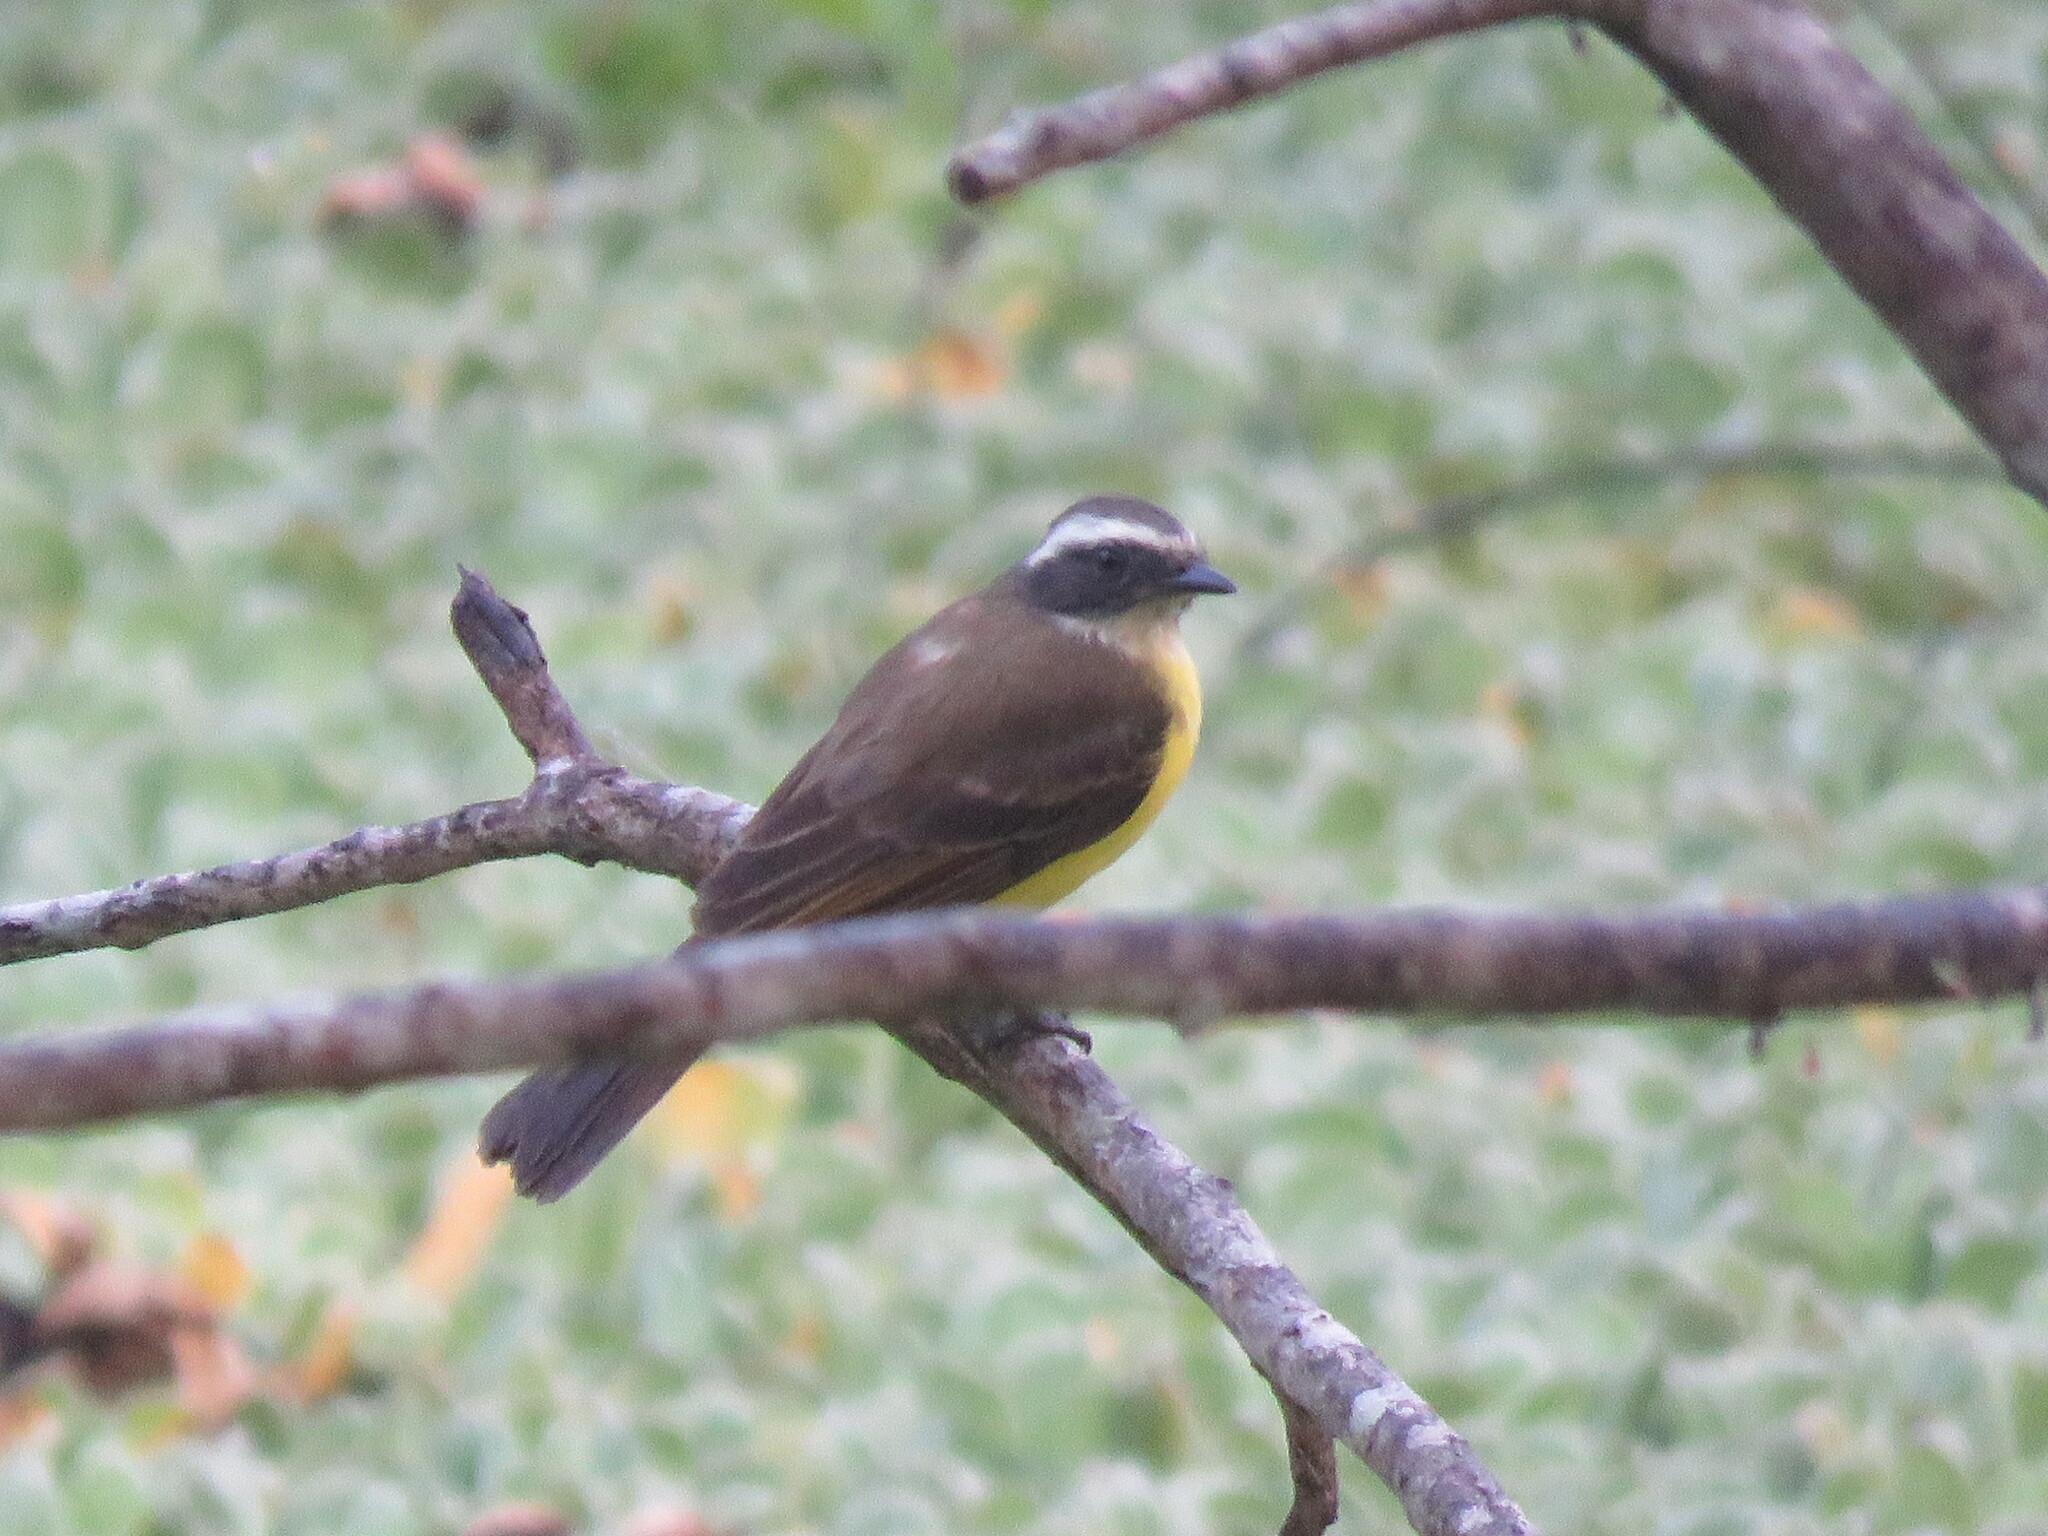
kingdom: Animalia
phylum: Chordata
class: Aves
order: Passeriformes
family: Tyrannidae
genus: Myiozetetes
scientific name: Myiozetetes cayanensis
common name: Rusty-margined flycatcher
